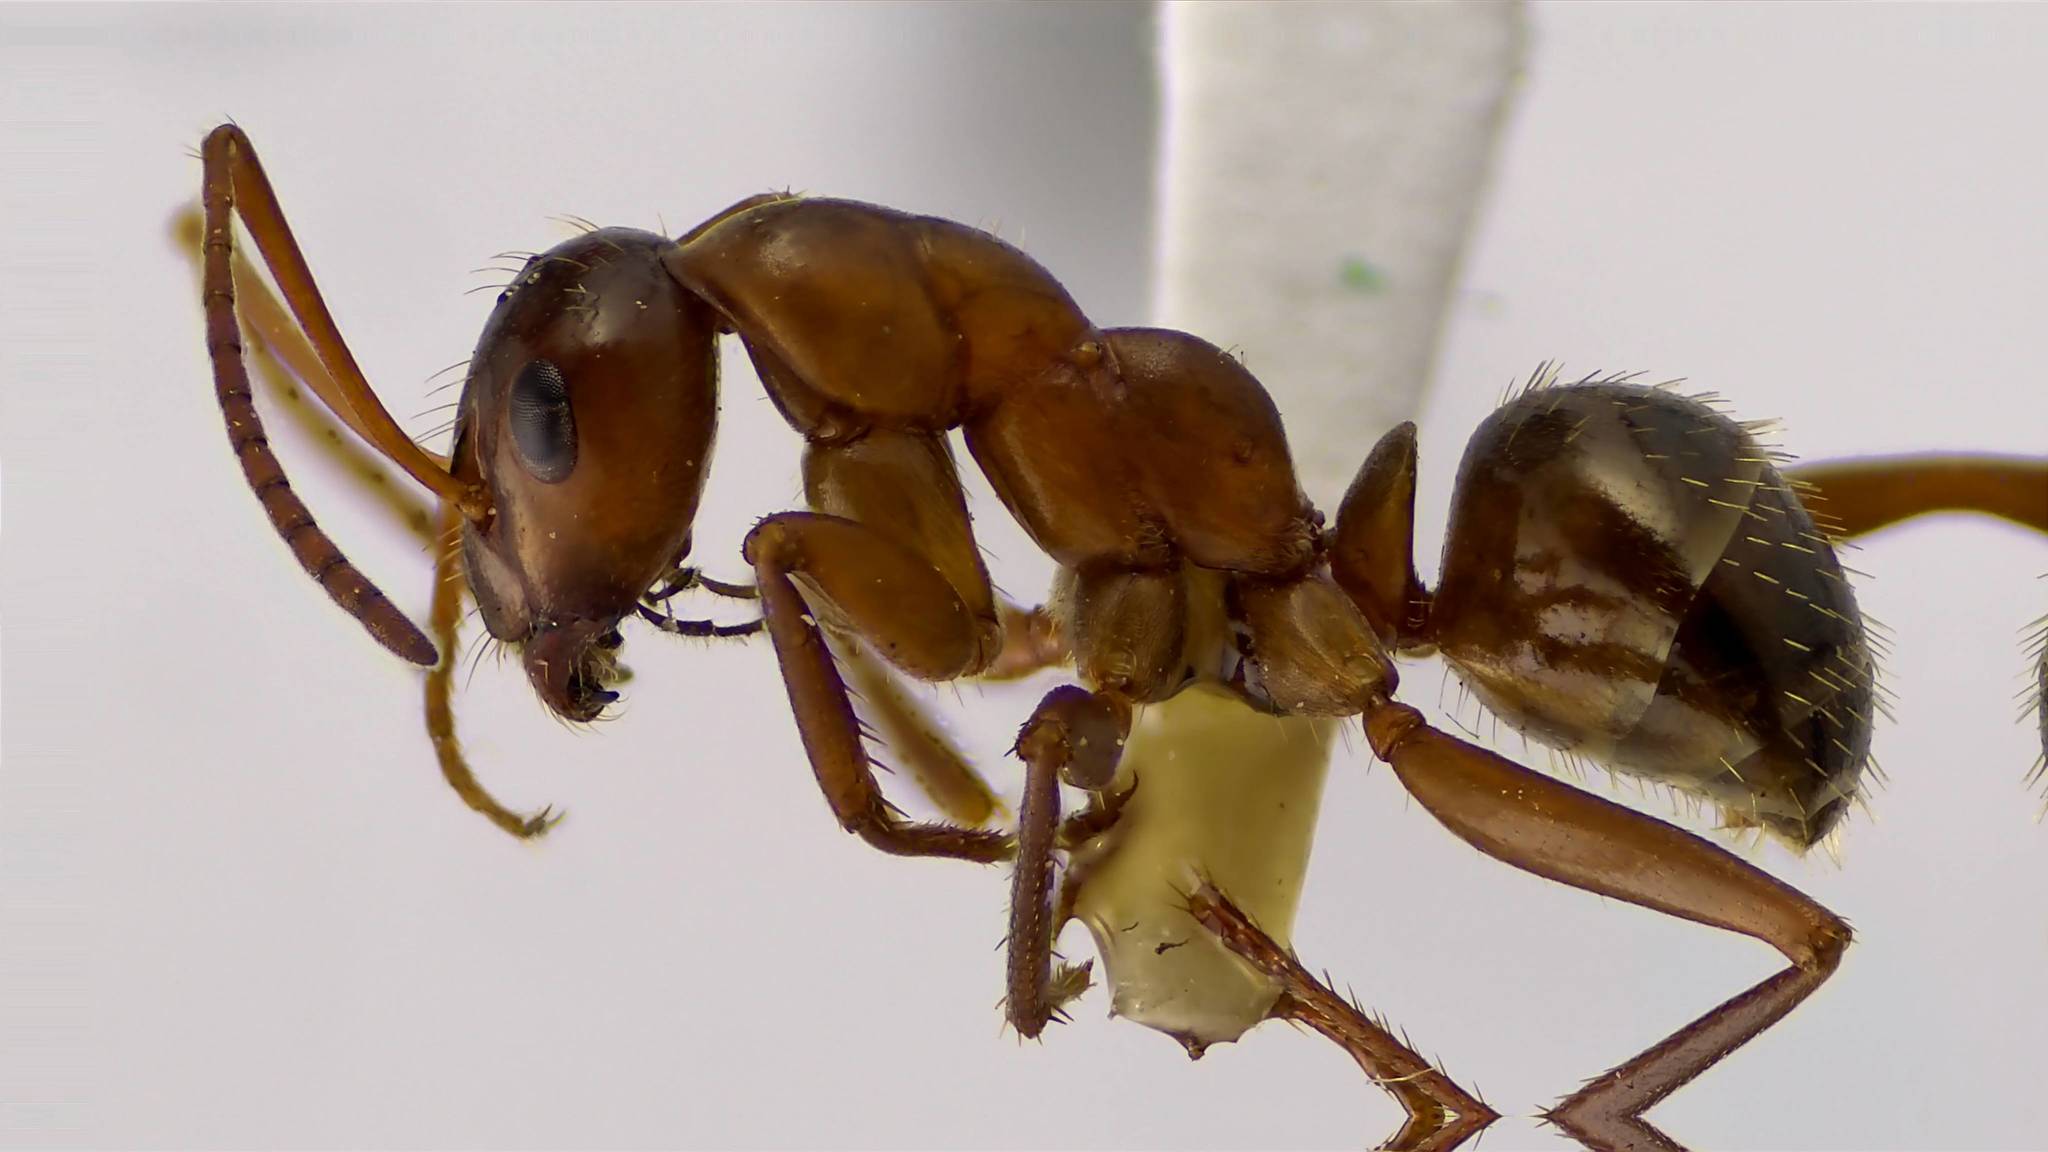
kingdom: Animalia
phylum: Arthropoda
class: Insecta
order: Hymenoptera
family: Formicidae
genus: Formica
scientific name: Formica incerta
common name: Uncertain field ant
